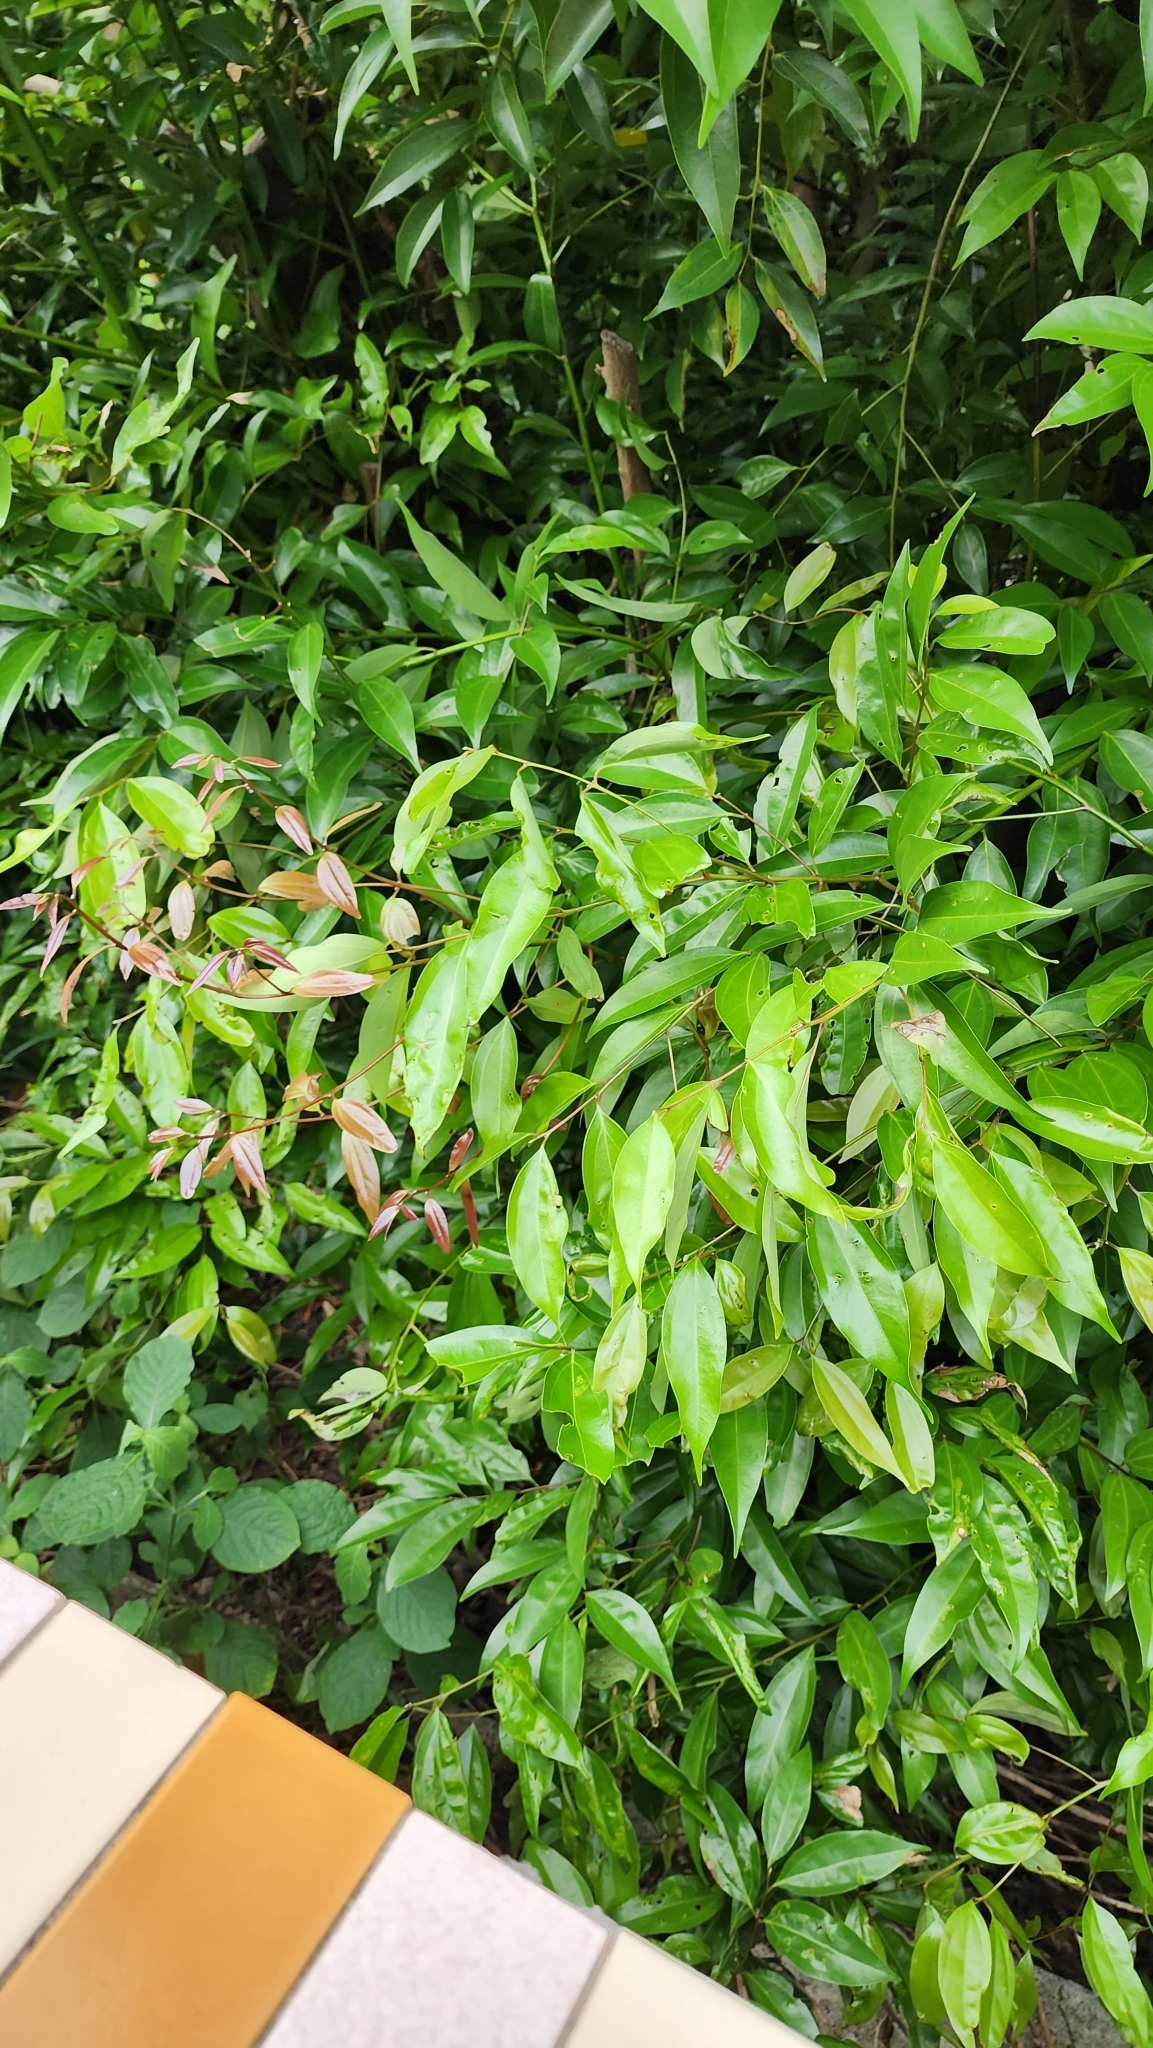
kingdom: Plantae
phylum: Tracheophyta
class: Magnoliopsida
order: Laurales
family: Lauraceae
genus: Cinnamomum
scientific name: Cinnamomum burmanni
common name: Padang cassia
